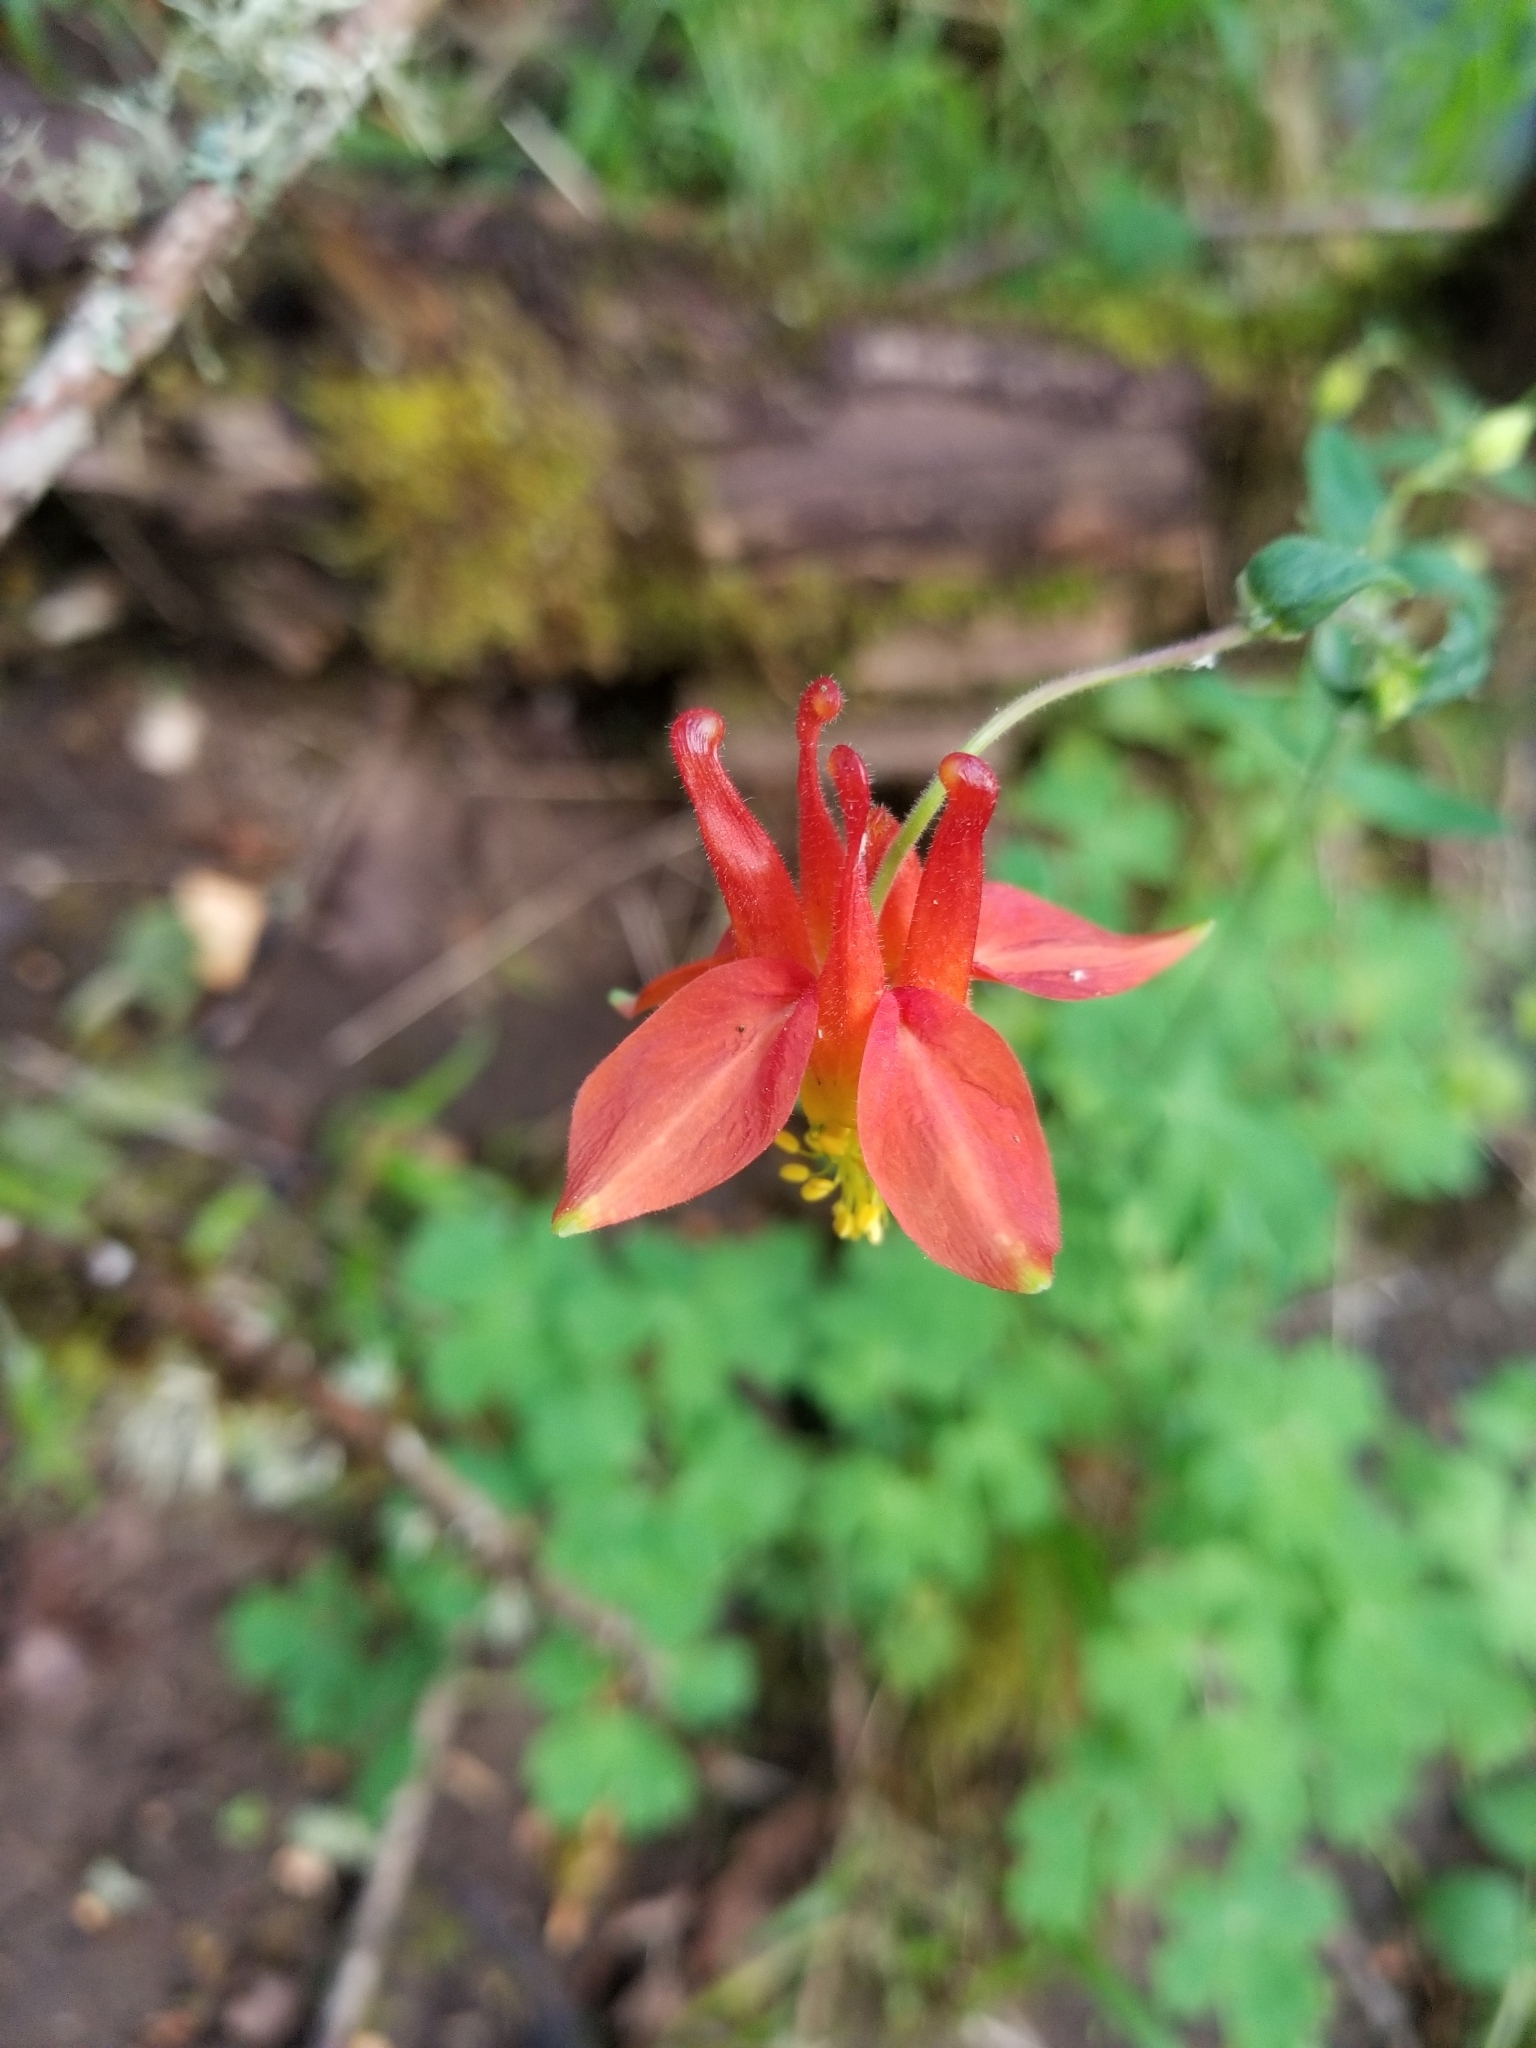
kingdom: Plantae
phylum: Tracheophyta
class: Magnoliopsida
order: Ranunculales
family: Ranunculaceae
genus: Aquilegia
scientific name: Aquilegia formosa
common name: Sitka columbine
